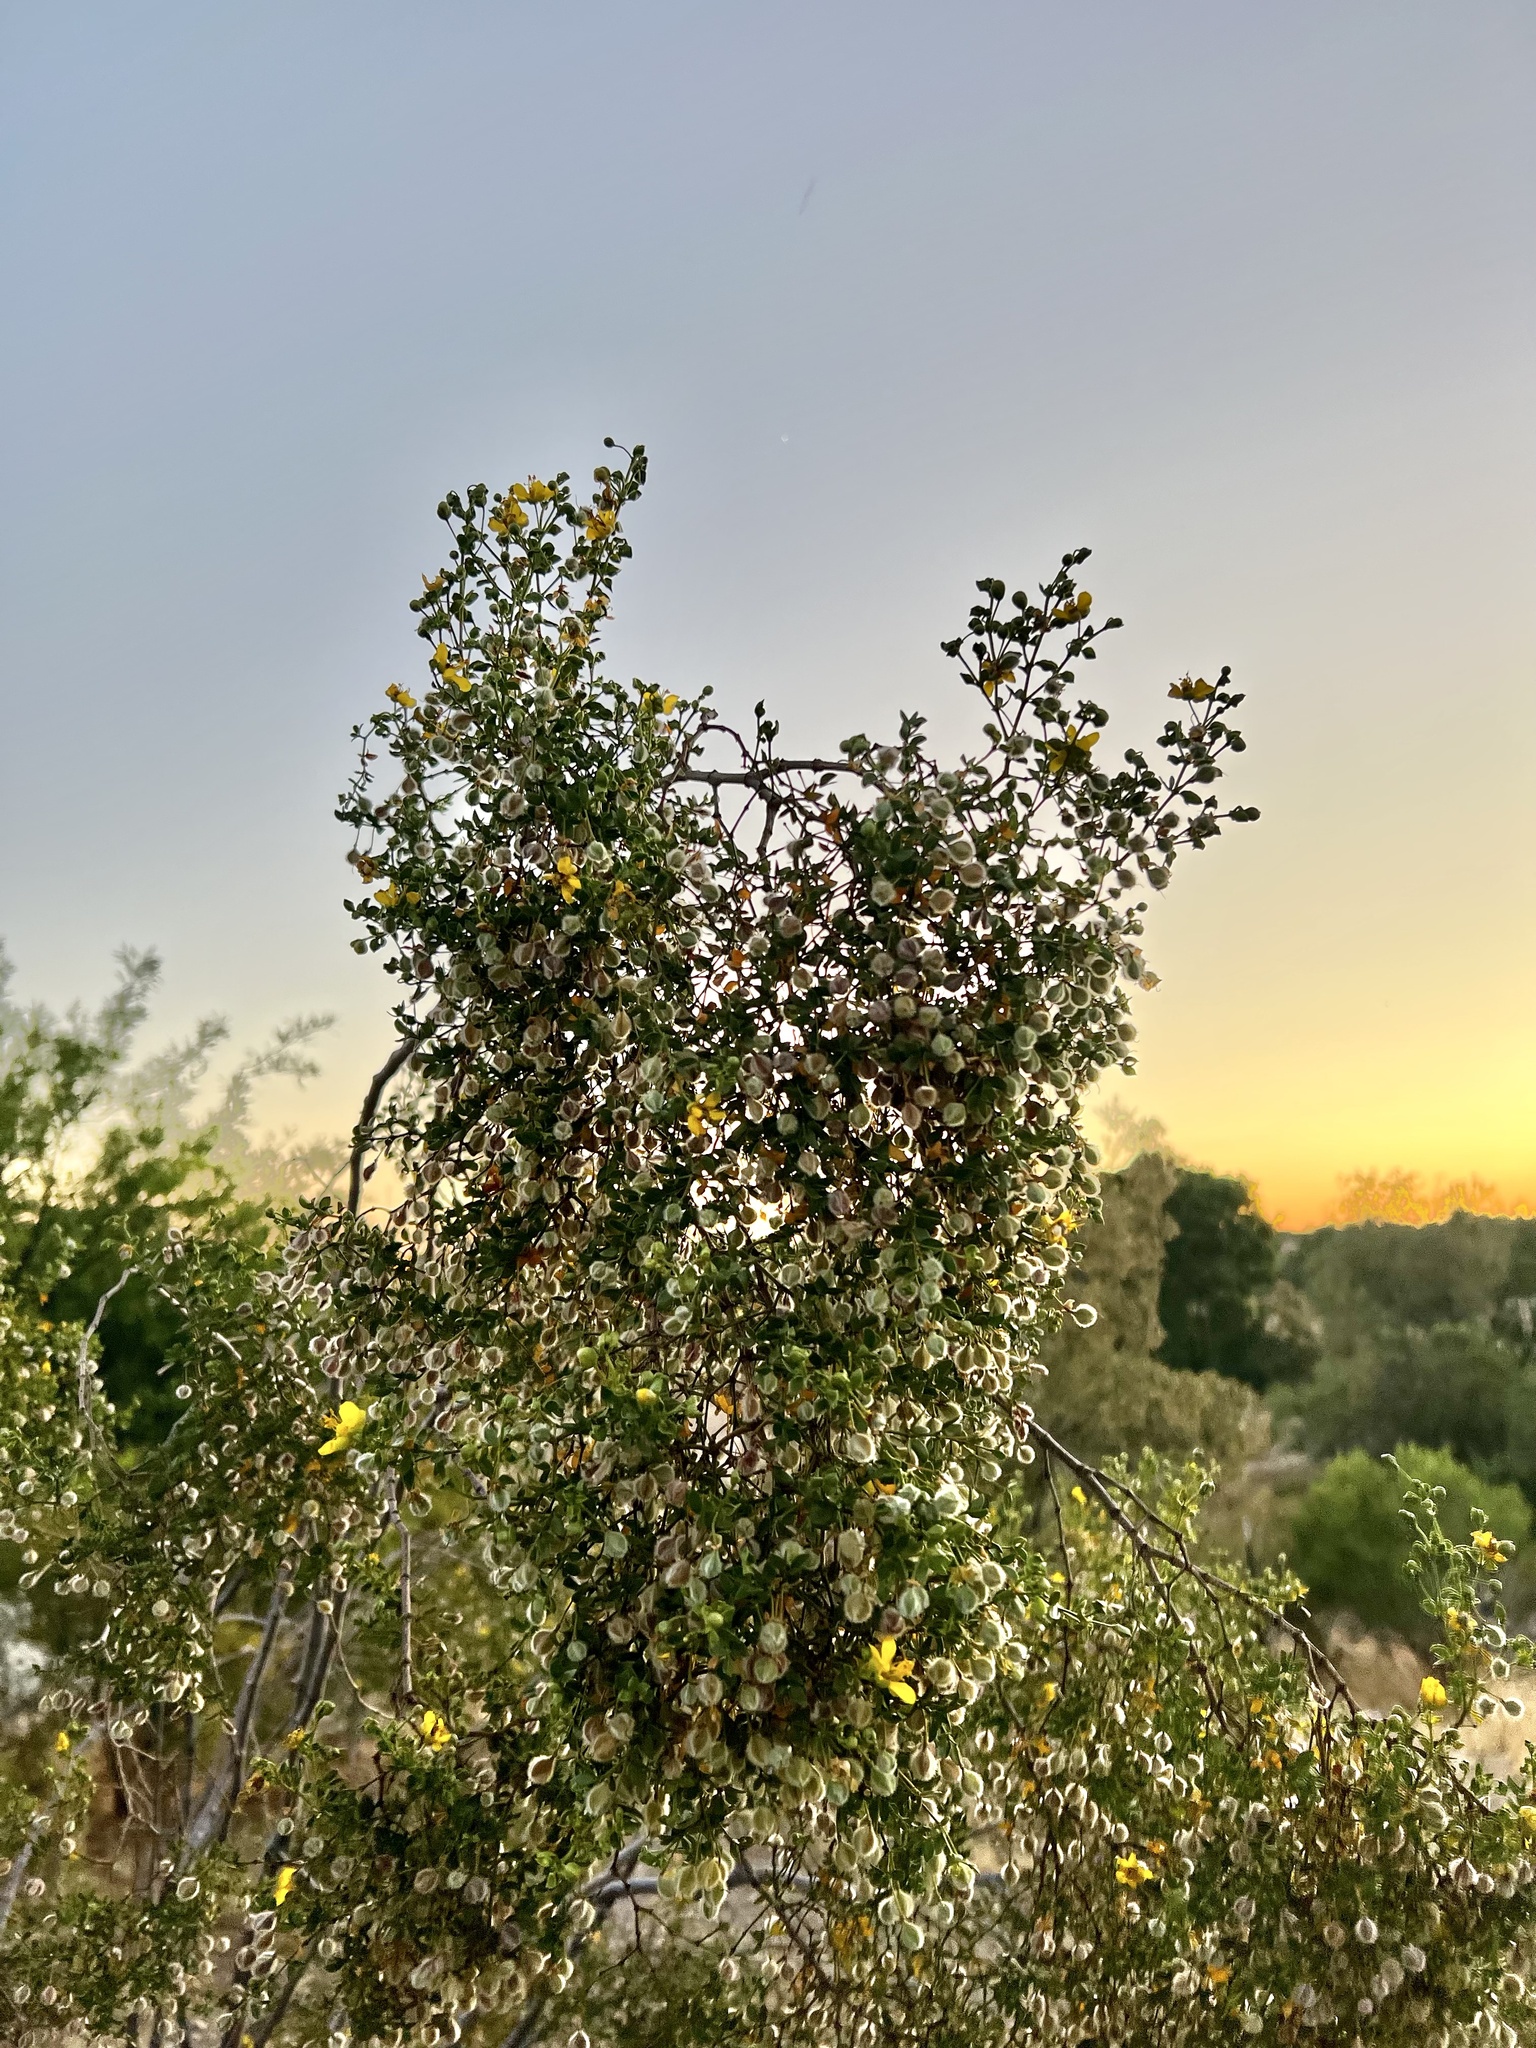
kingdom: Plantae
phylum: Tracheophyta
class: Magnoliopsida
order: Zygophyllales
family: Zygophyllaceae
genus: Larrea
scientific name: Larrea tridentata
